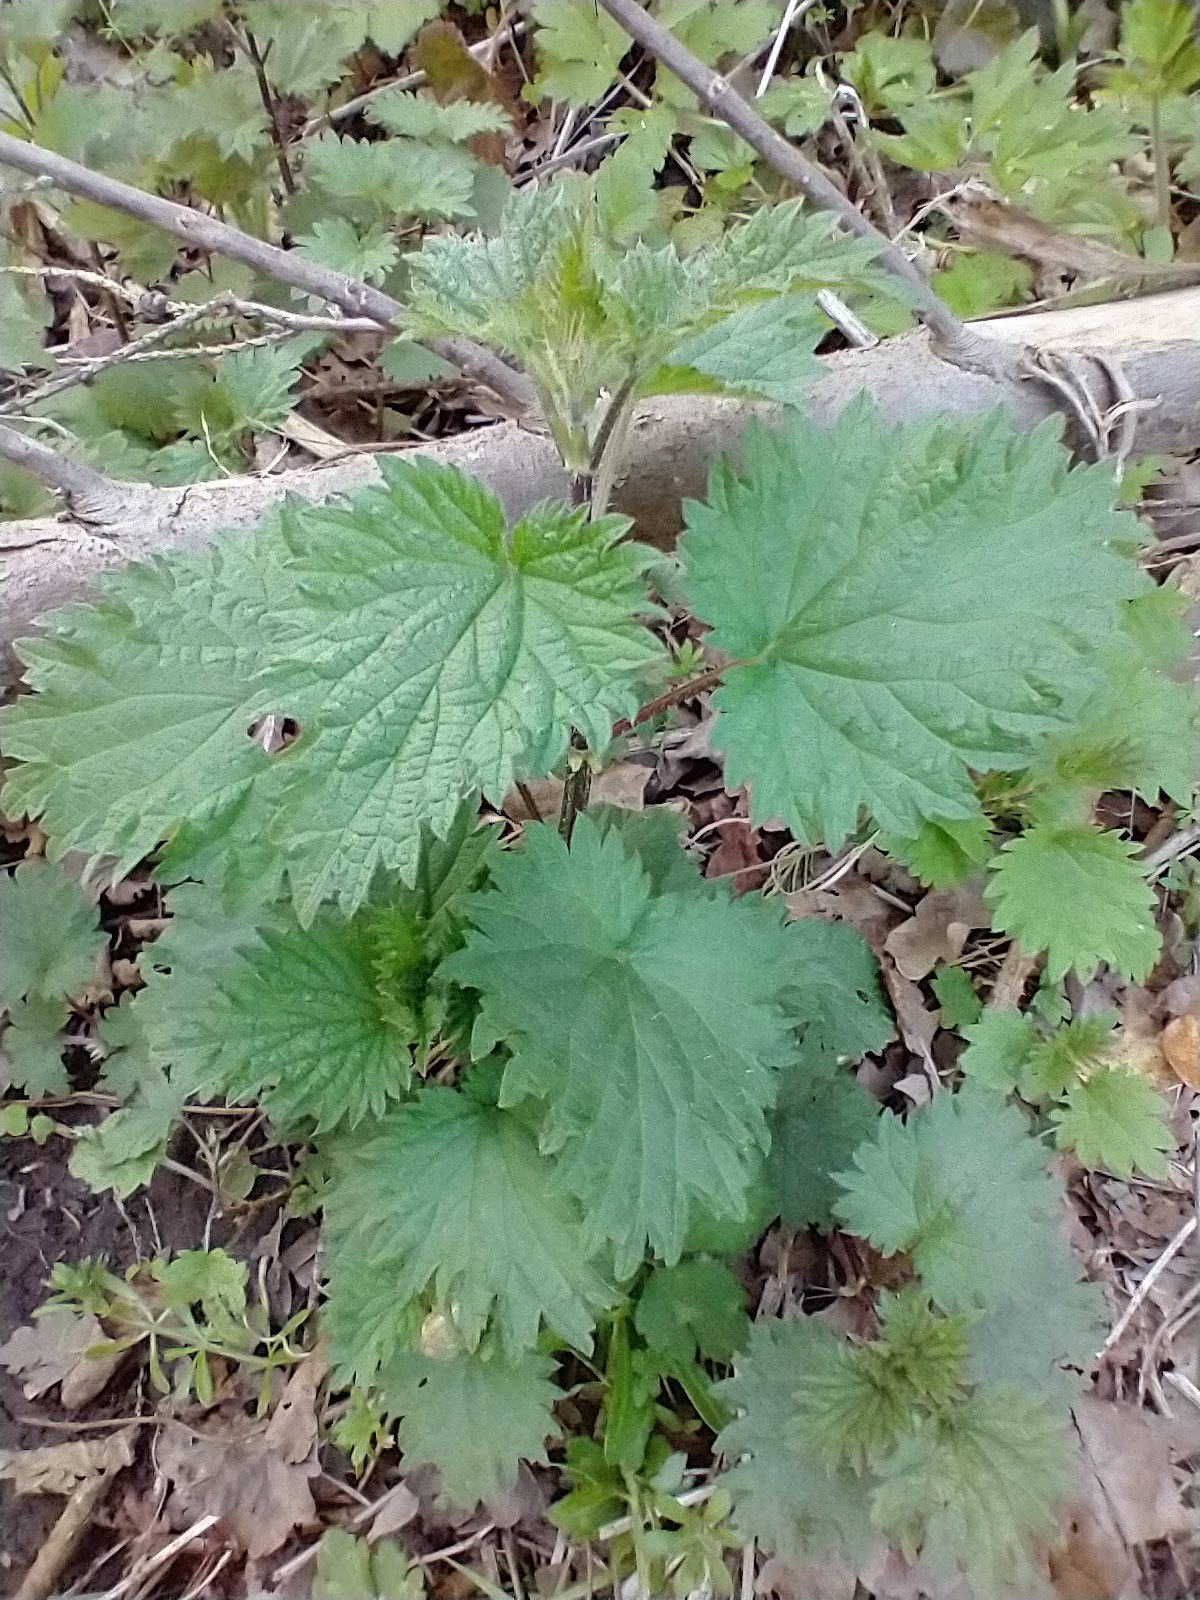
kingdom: Plantae
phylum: Tracheophyta
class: Magnoliopsida
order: Rosales
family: Urticaceae
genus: Urtica
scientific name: Urtica dioica
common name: Common nettle
